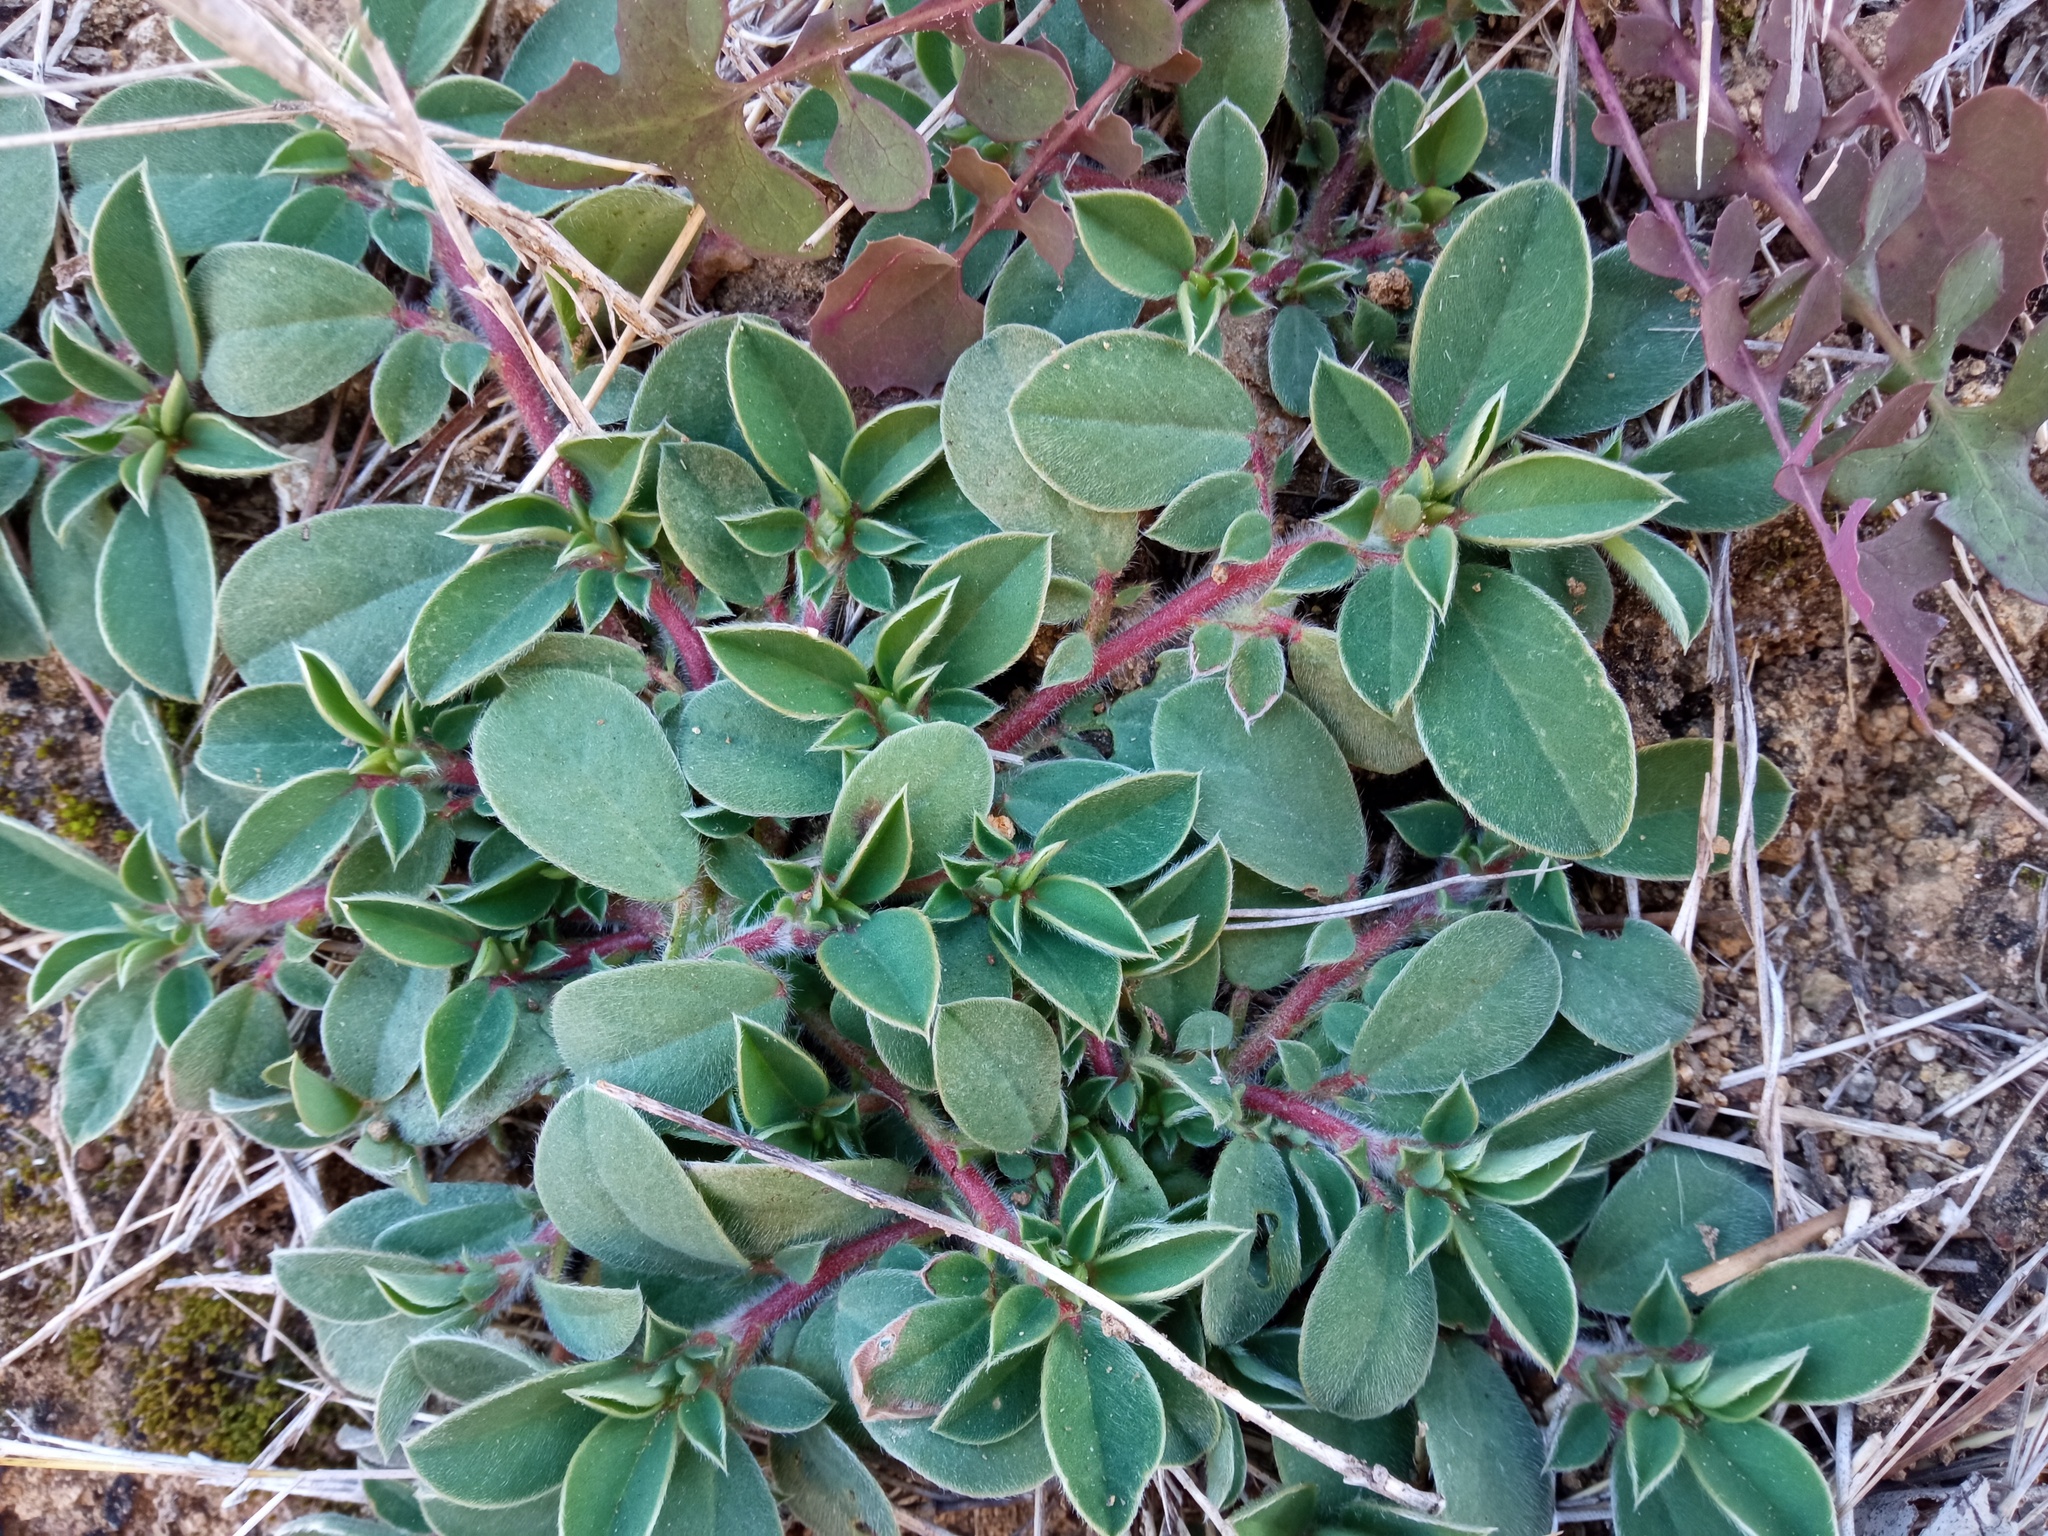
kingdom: Plantae
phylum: Tracheophyta
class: Magnoliopsida
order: Fabales
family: Fabaceae
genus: Tripodion
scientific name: Tripodion tetraphyllum
